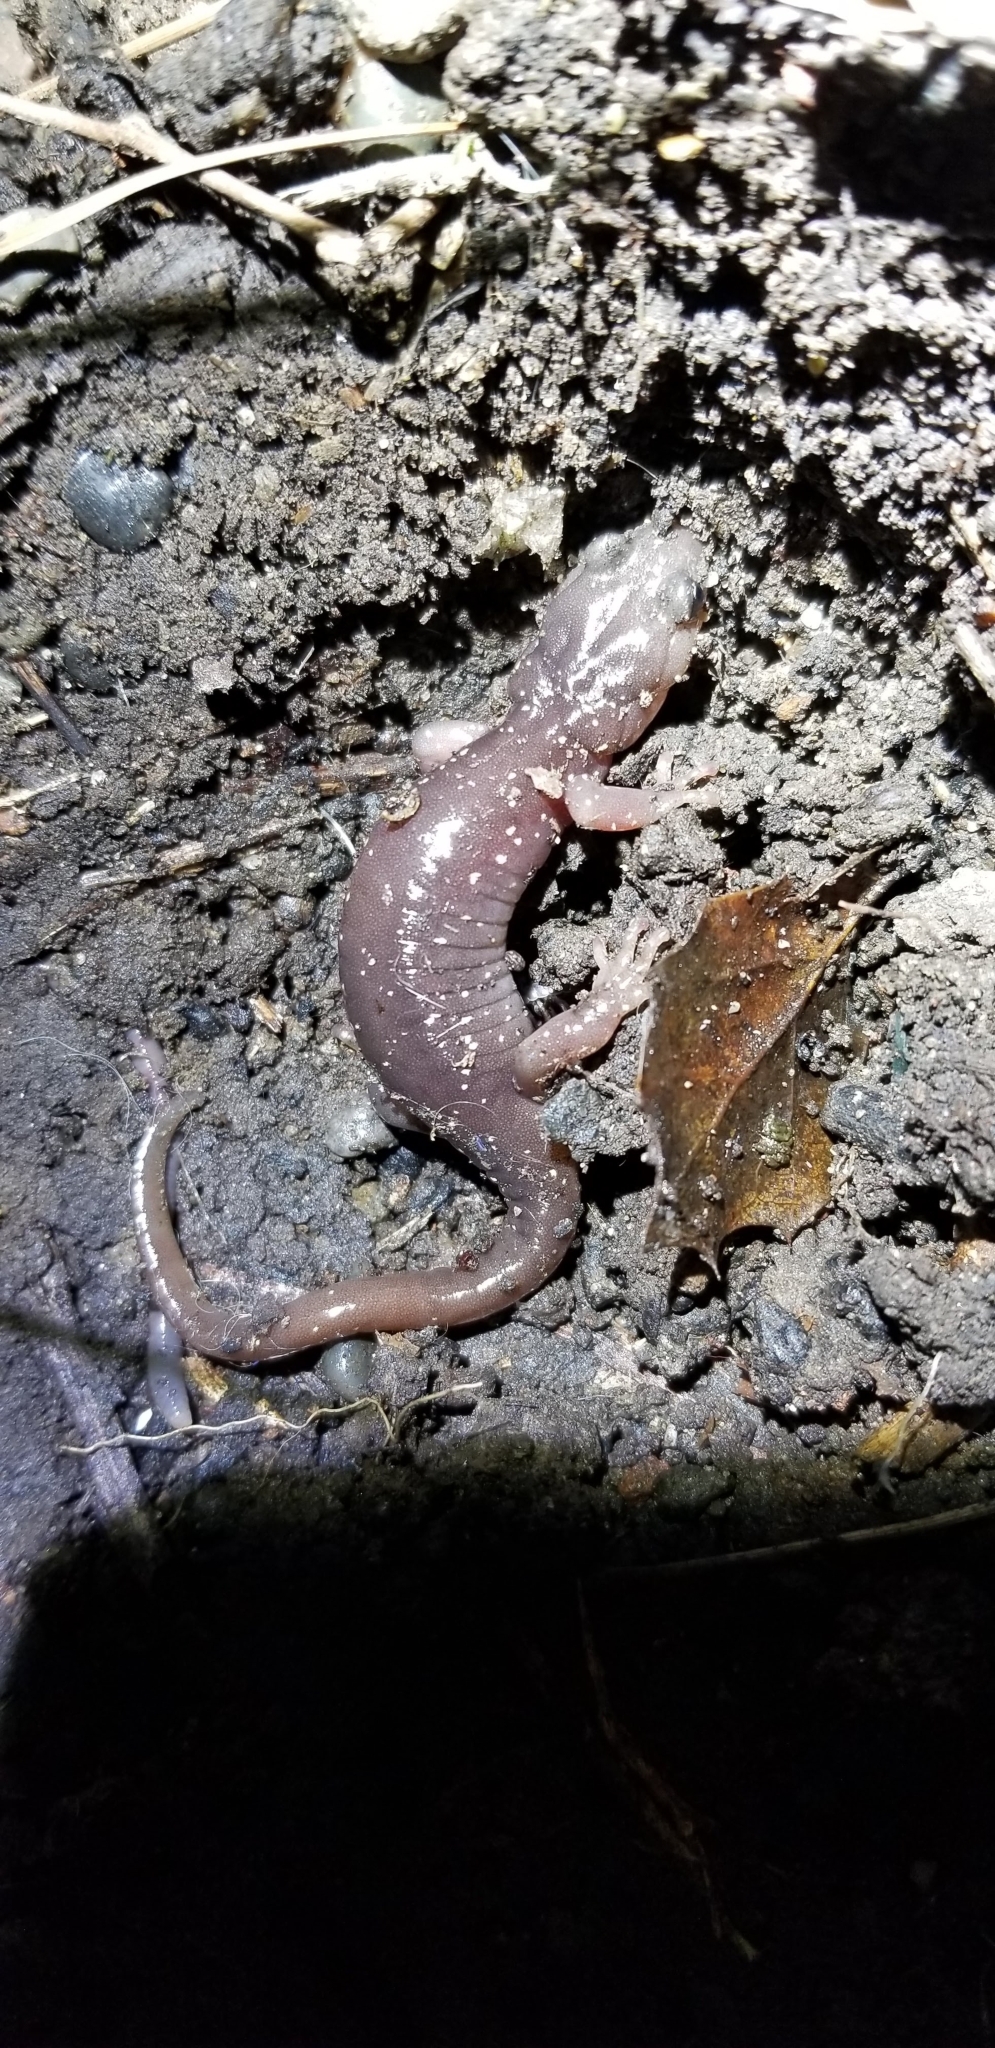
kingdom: Animalia
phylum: Chordata
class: Amphibia
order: Caudata
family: Plethodontidae
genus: Aneides
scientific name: Aneides lugubris
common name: Arboreal salamander
